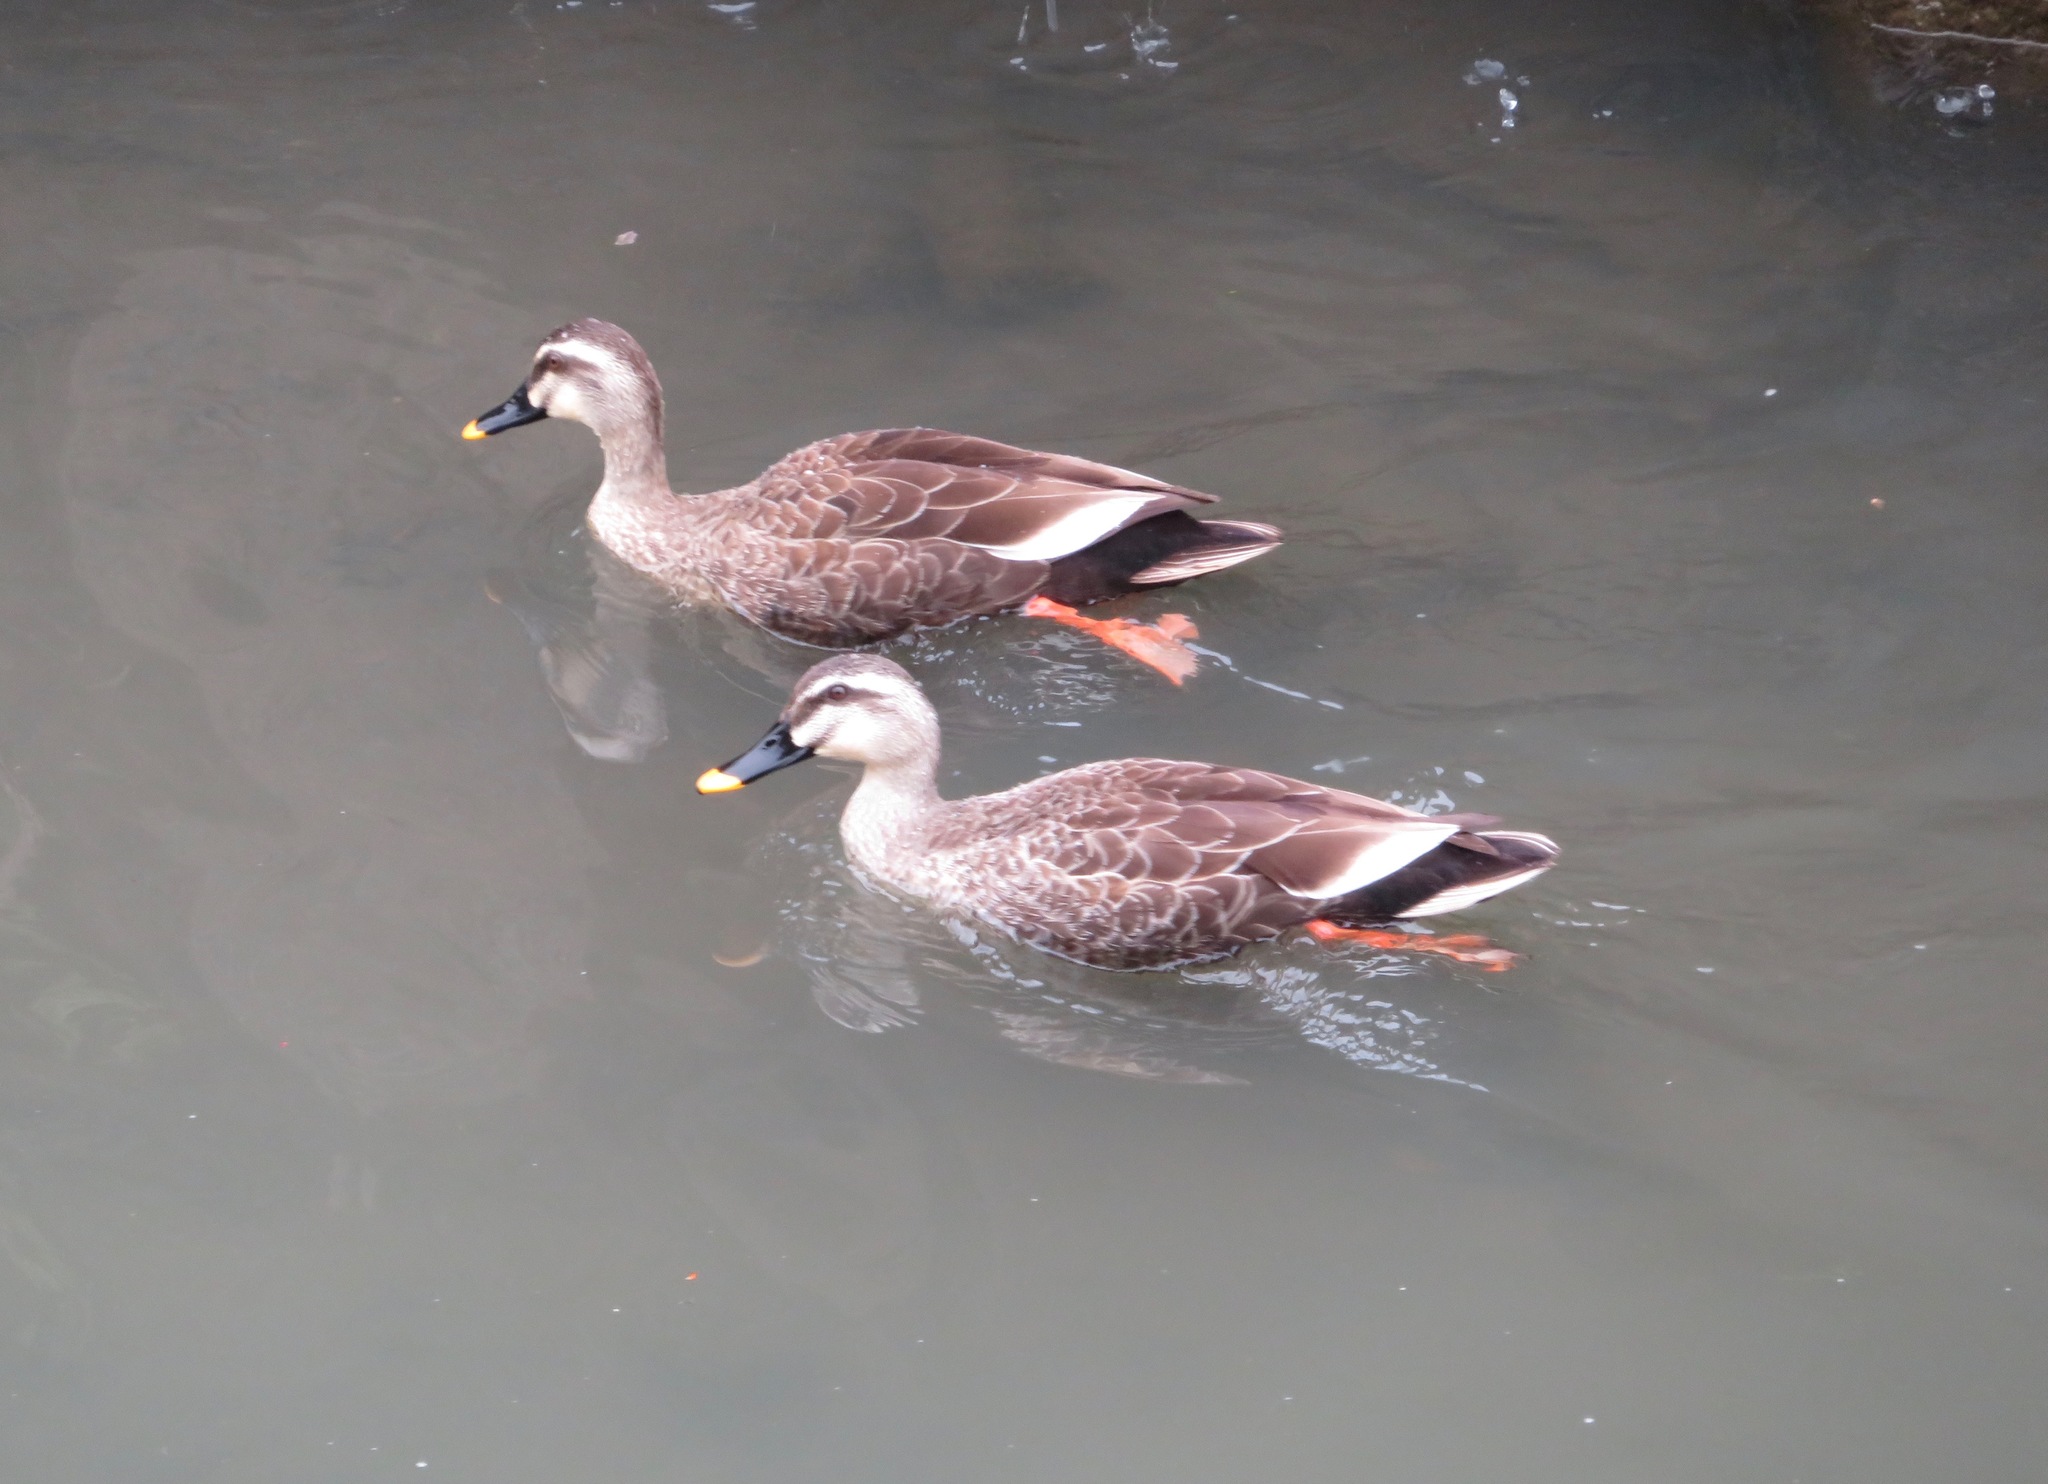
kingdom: Animalia
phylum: Chordata
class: Aves
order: Anseriformes
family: Anatidae
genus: Anas
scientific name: Anas zonorhyncha
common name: Eastern spot-billed duck
